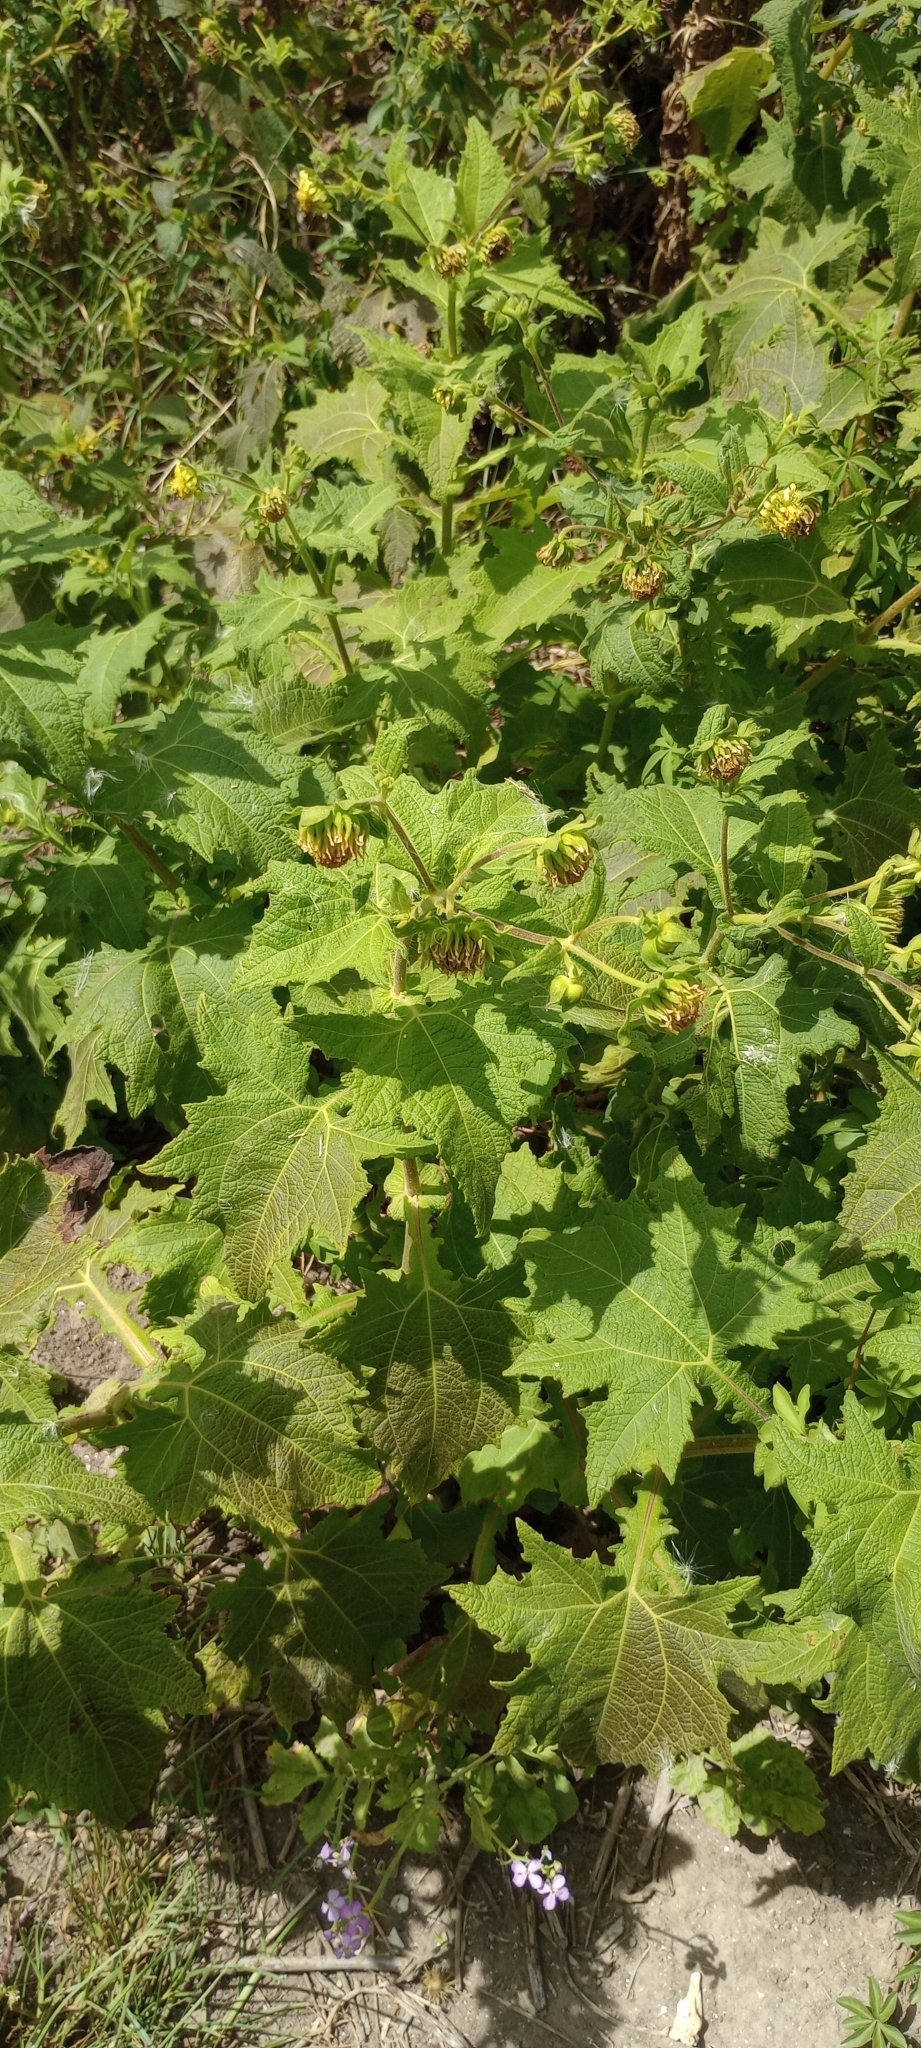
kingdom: Plantae
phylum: Tracheophyta
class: Magnoliopsida
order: Asterales
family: Asteraceae
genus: Smallanthus
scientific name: Smallanthus connatus
